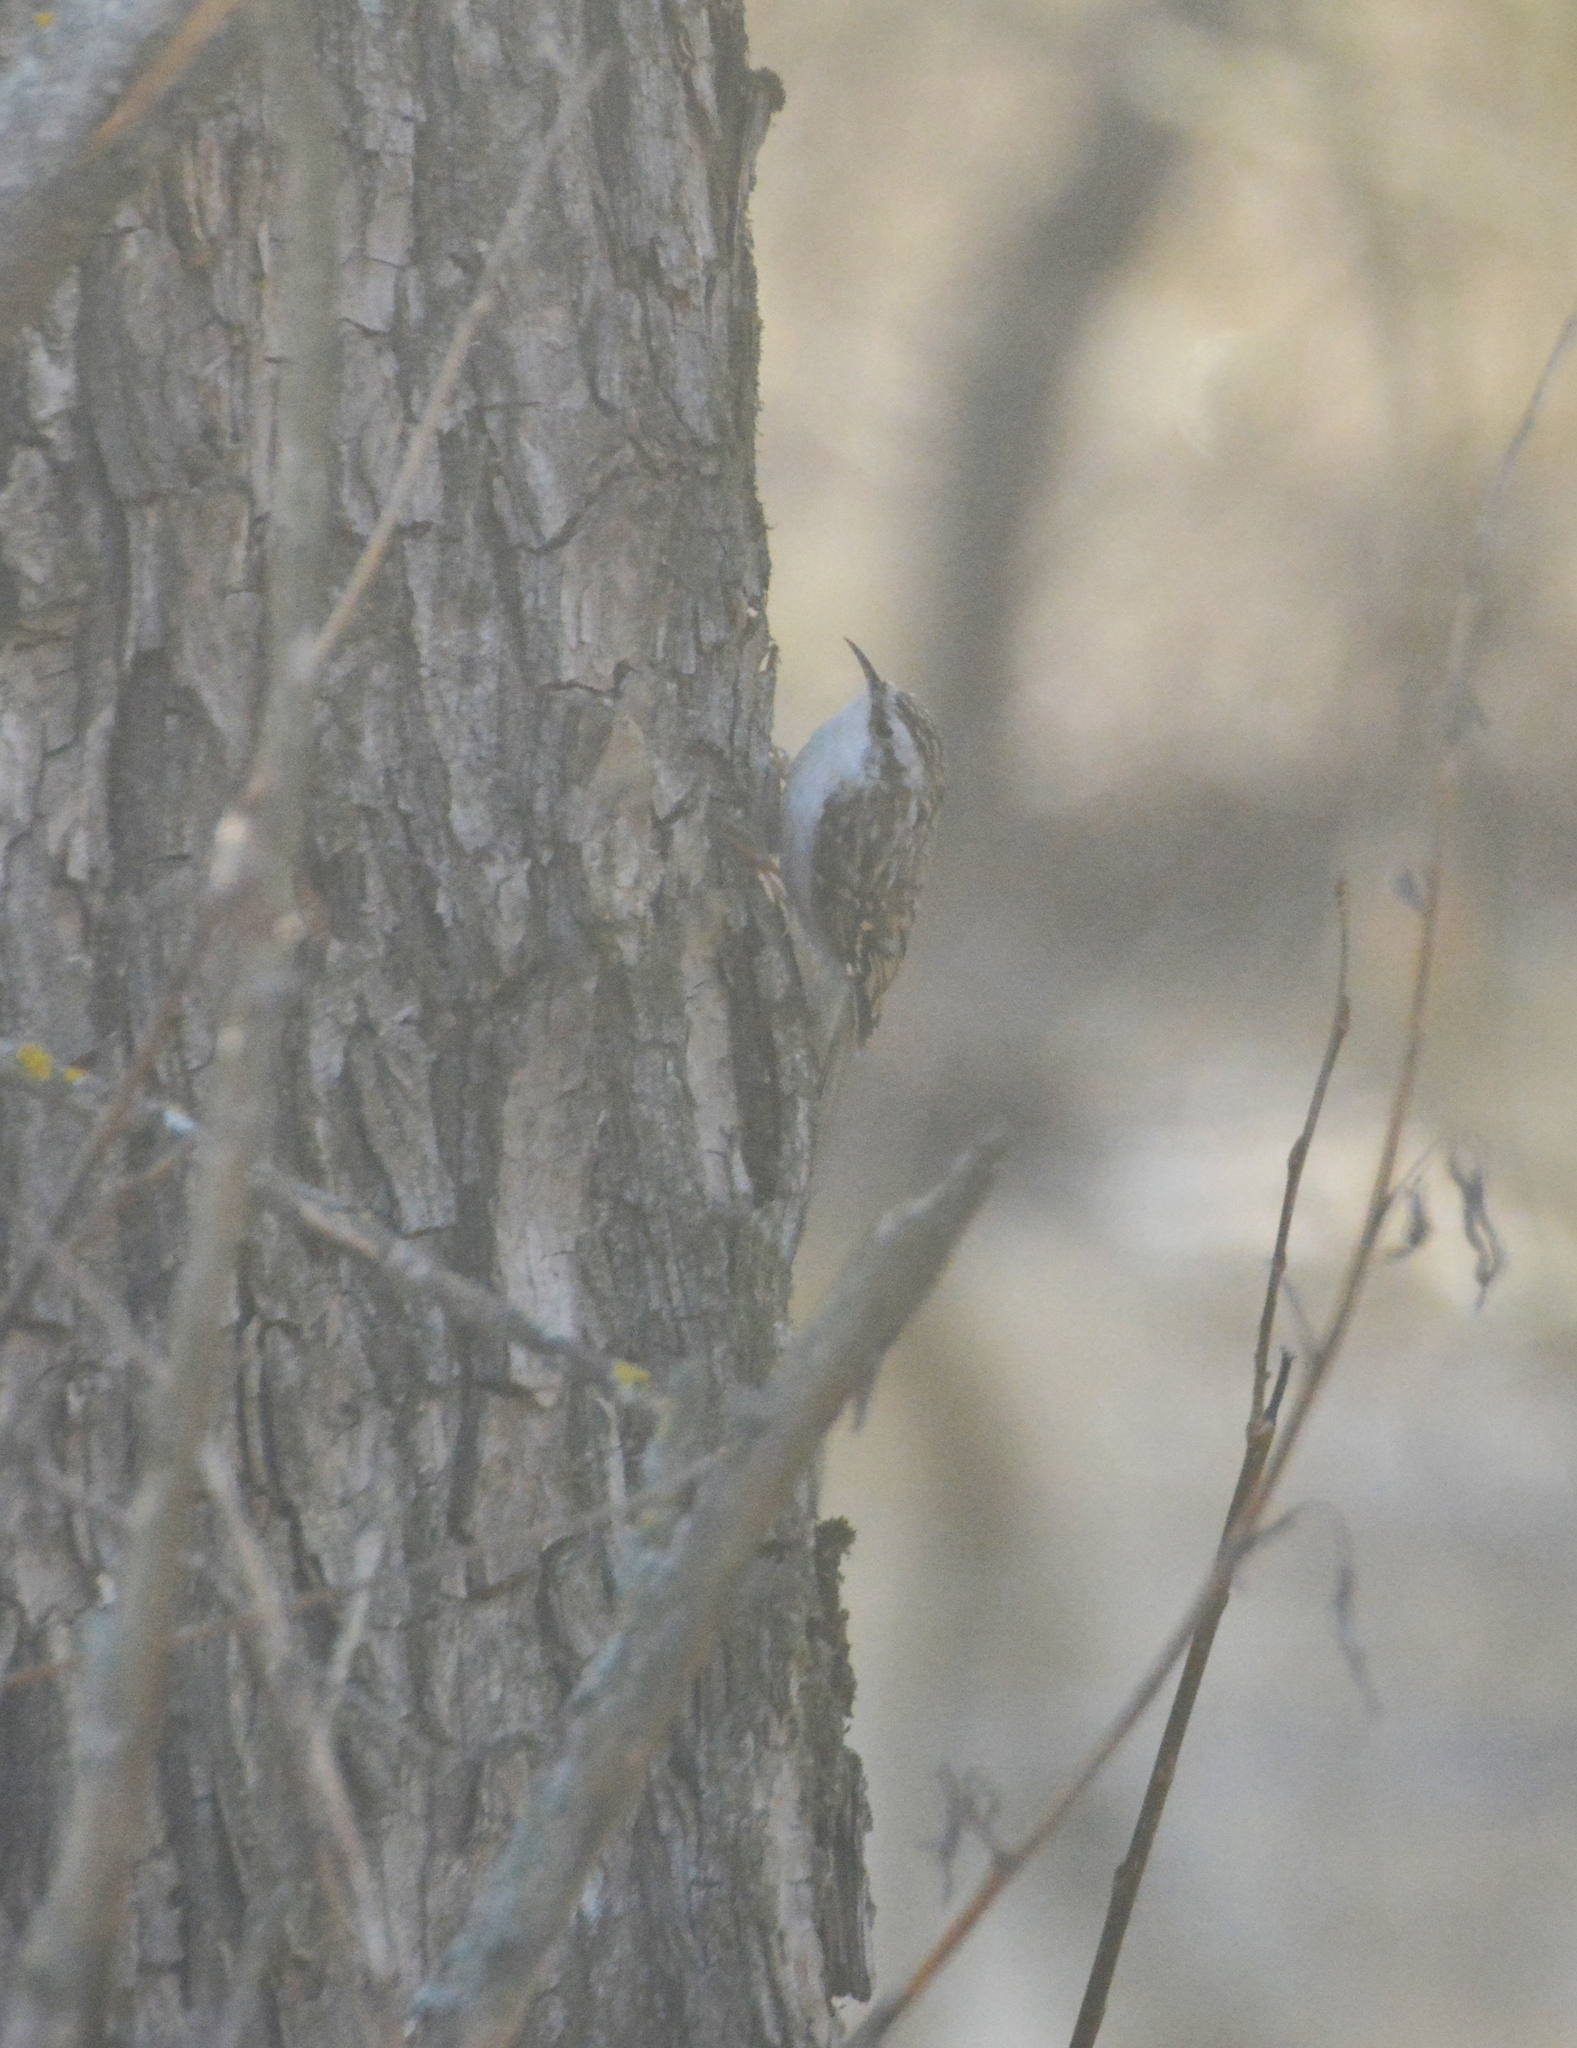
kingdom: Animalia
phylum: Chordata
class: Aves
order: Passeriformes
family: Certhiidae
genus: Certhia
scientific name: Certhia familiaris
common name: Eurasian treecreeper
